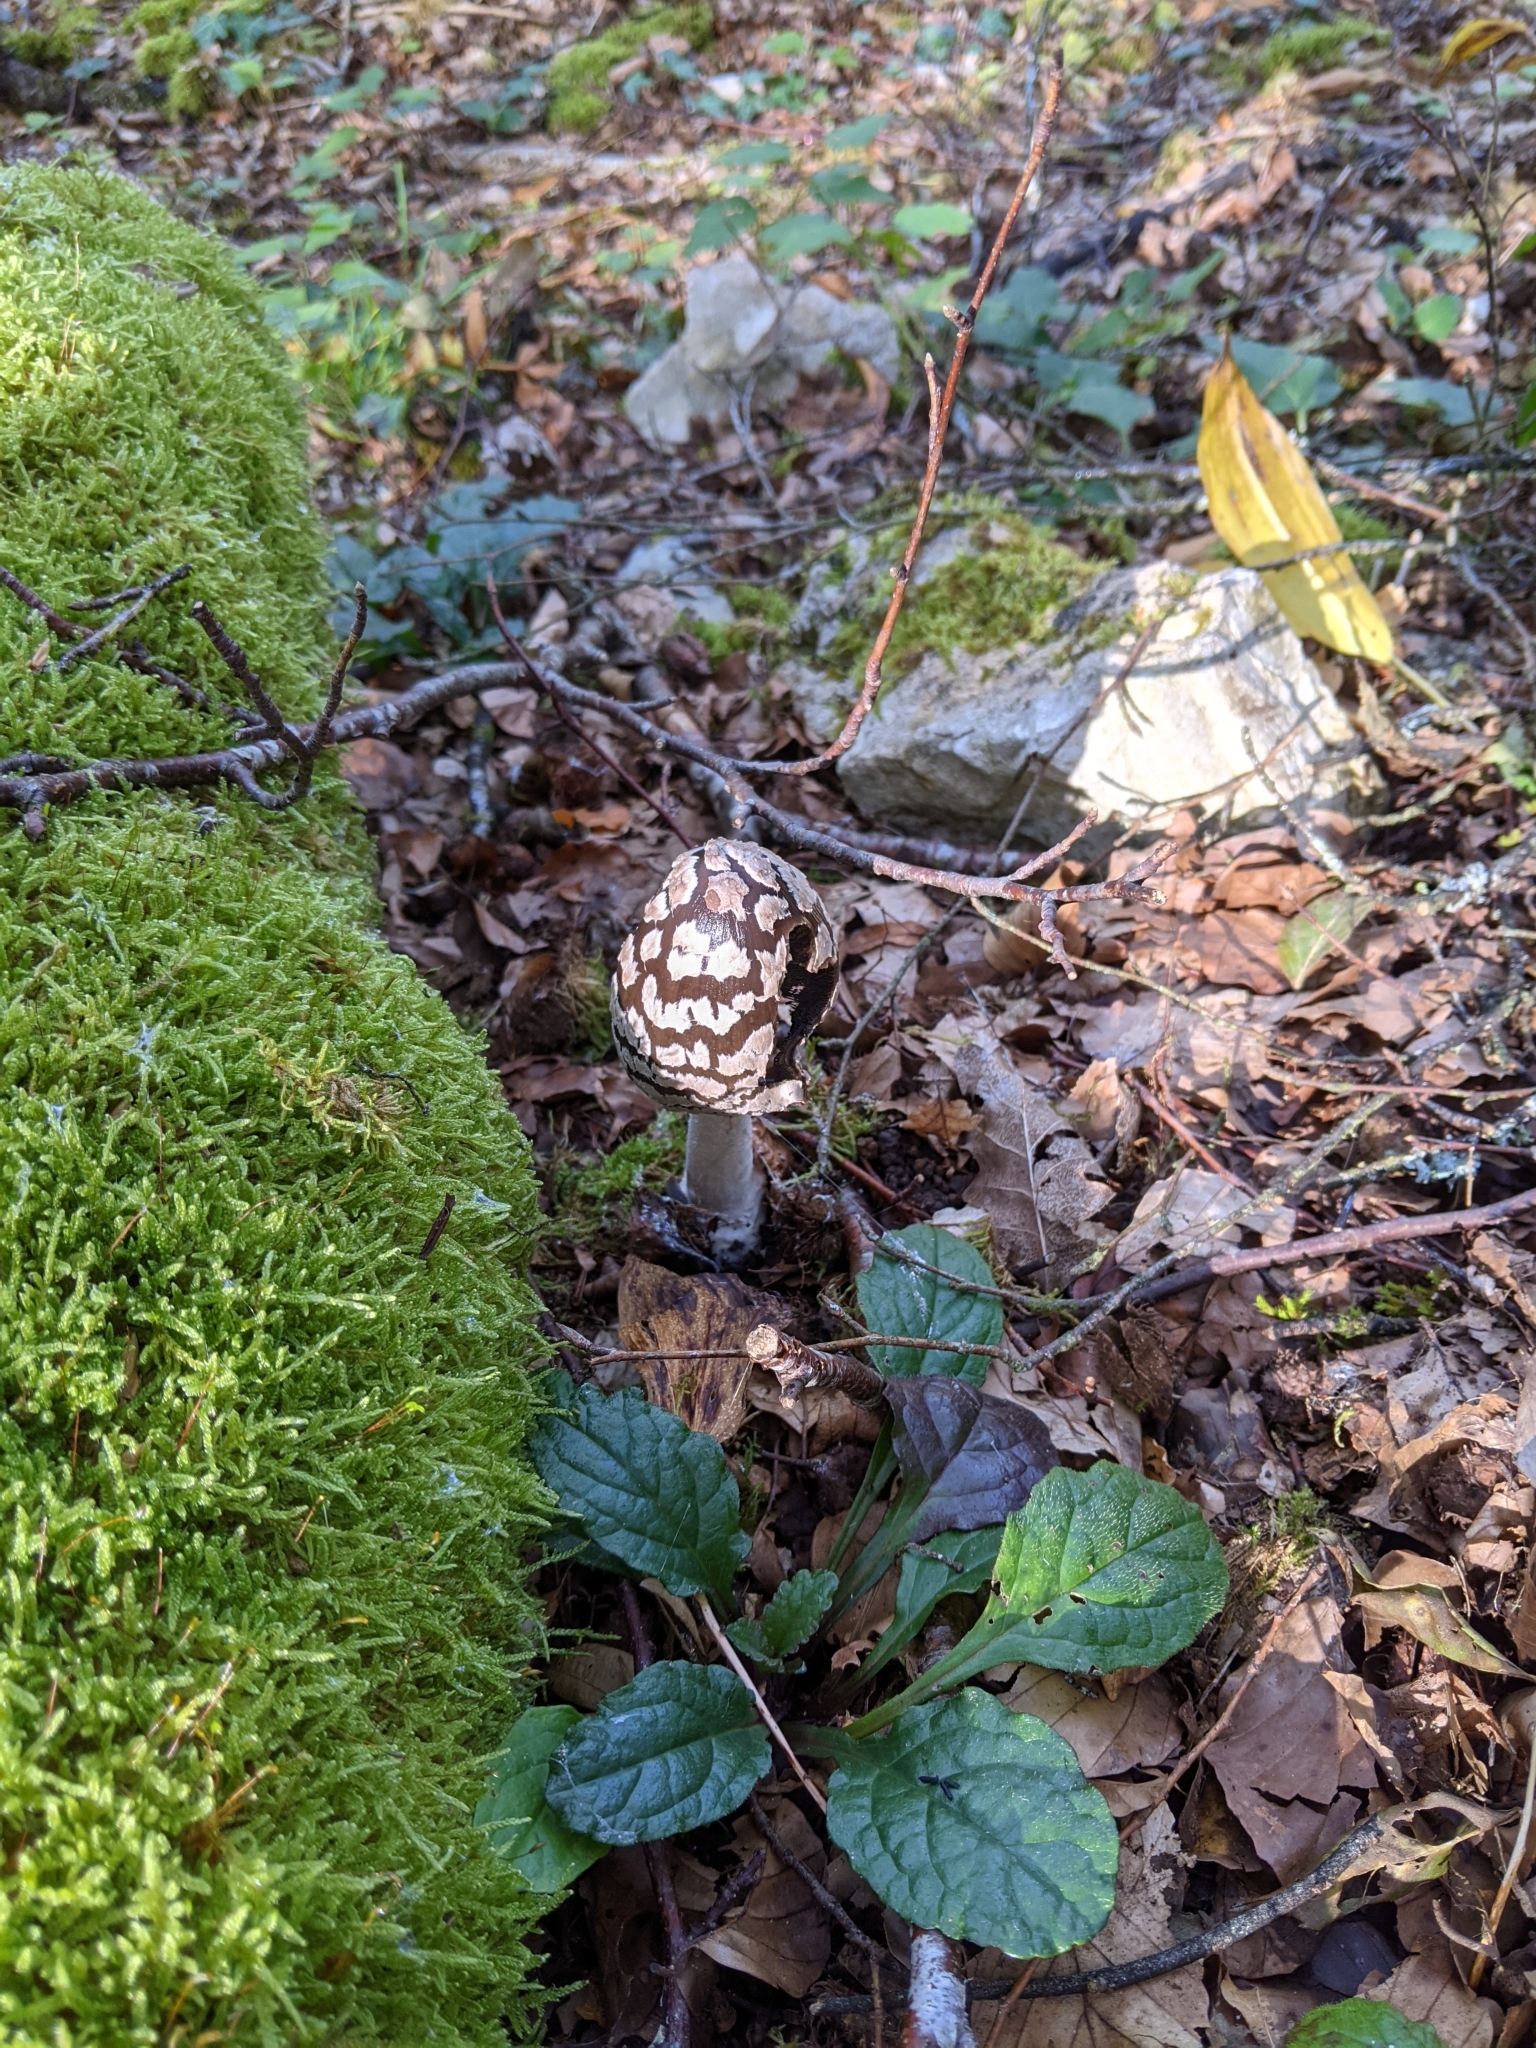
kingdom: Fungi
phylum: Basidiomycota
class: Agaricomycetes
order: Agaricales
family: Psathyrellaceae
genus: Coprinopsis
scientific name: Coprinopsis picacea
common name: Magpie inkcap
